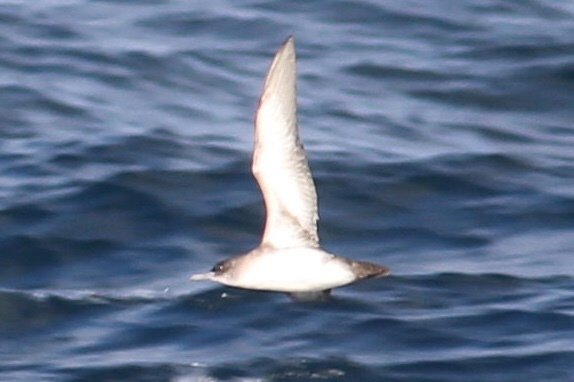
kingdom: Animalia
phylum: Chordata
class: Aves
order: Procellariiformes
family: Procellariidae
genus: Puffinus
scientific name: Puffinus opisthomelas
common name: Black-vented shearwater
